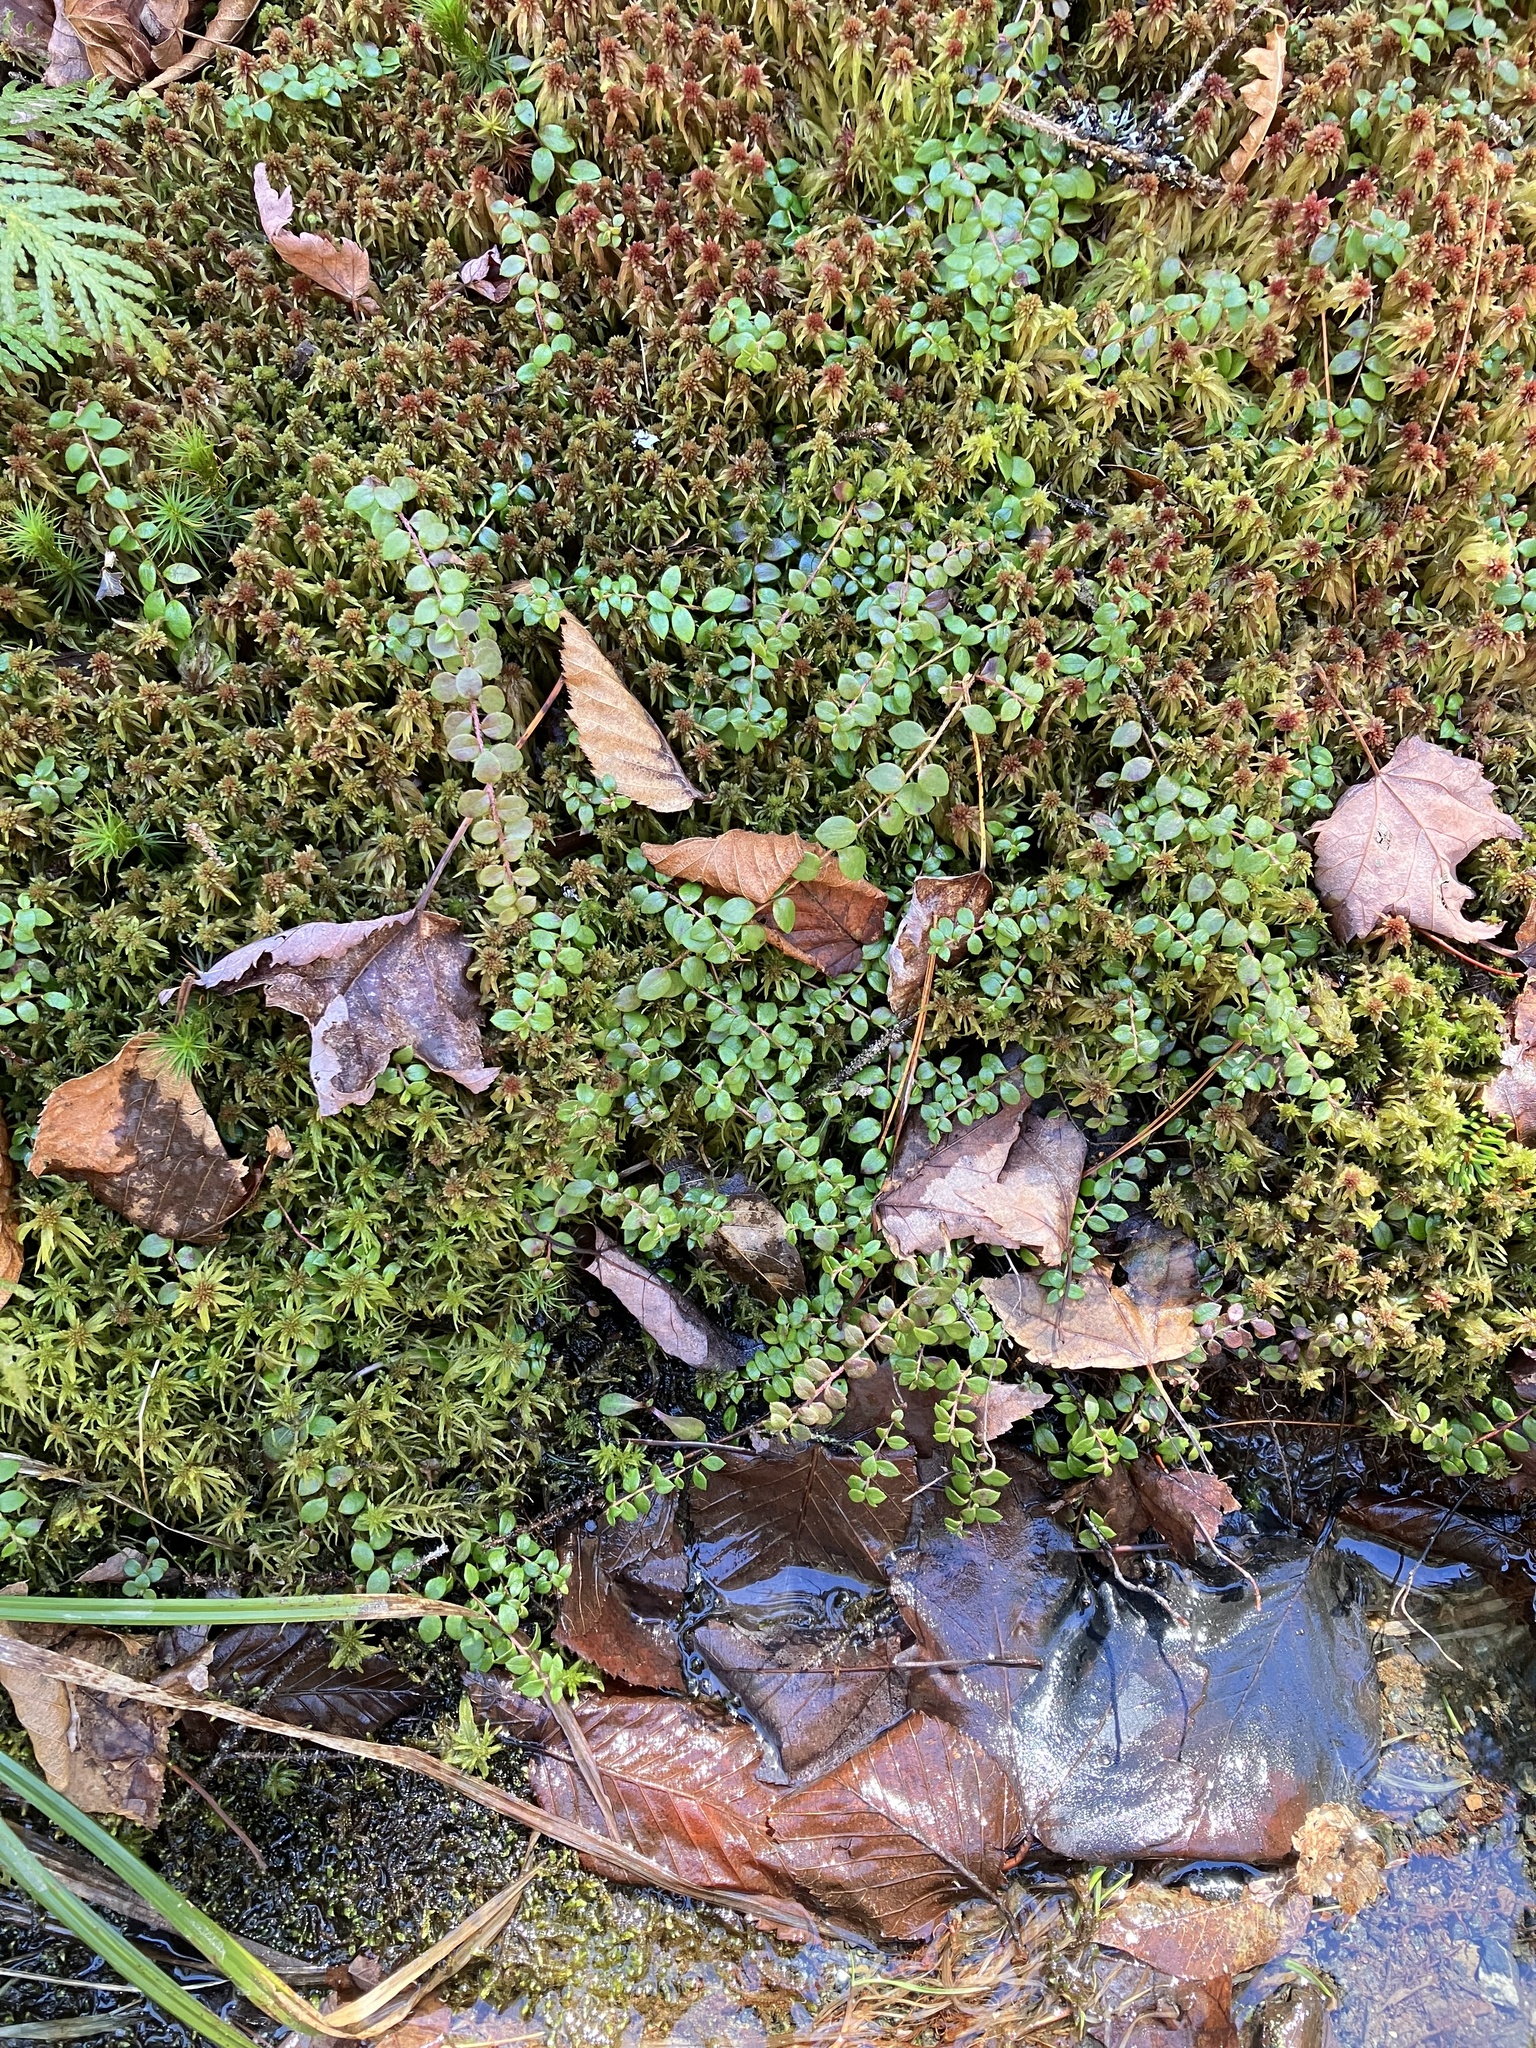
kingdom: Plantae
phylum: Tracheophyta
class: Magnoliopsida
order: Ericales
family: Ericaceae
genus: Gaultheria
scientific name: Gaultheria hispidula
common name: Cancer wintergreen
